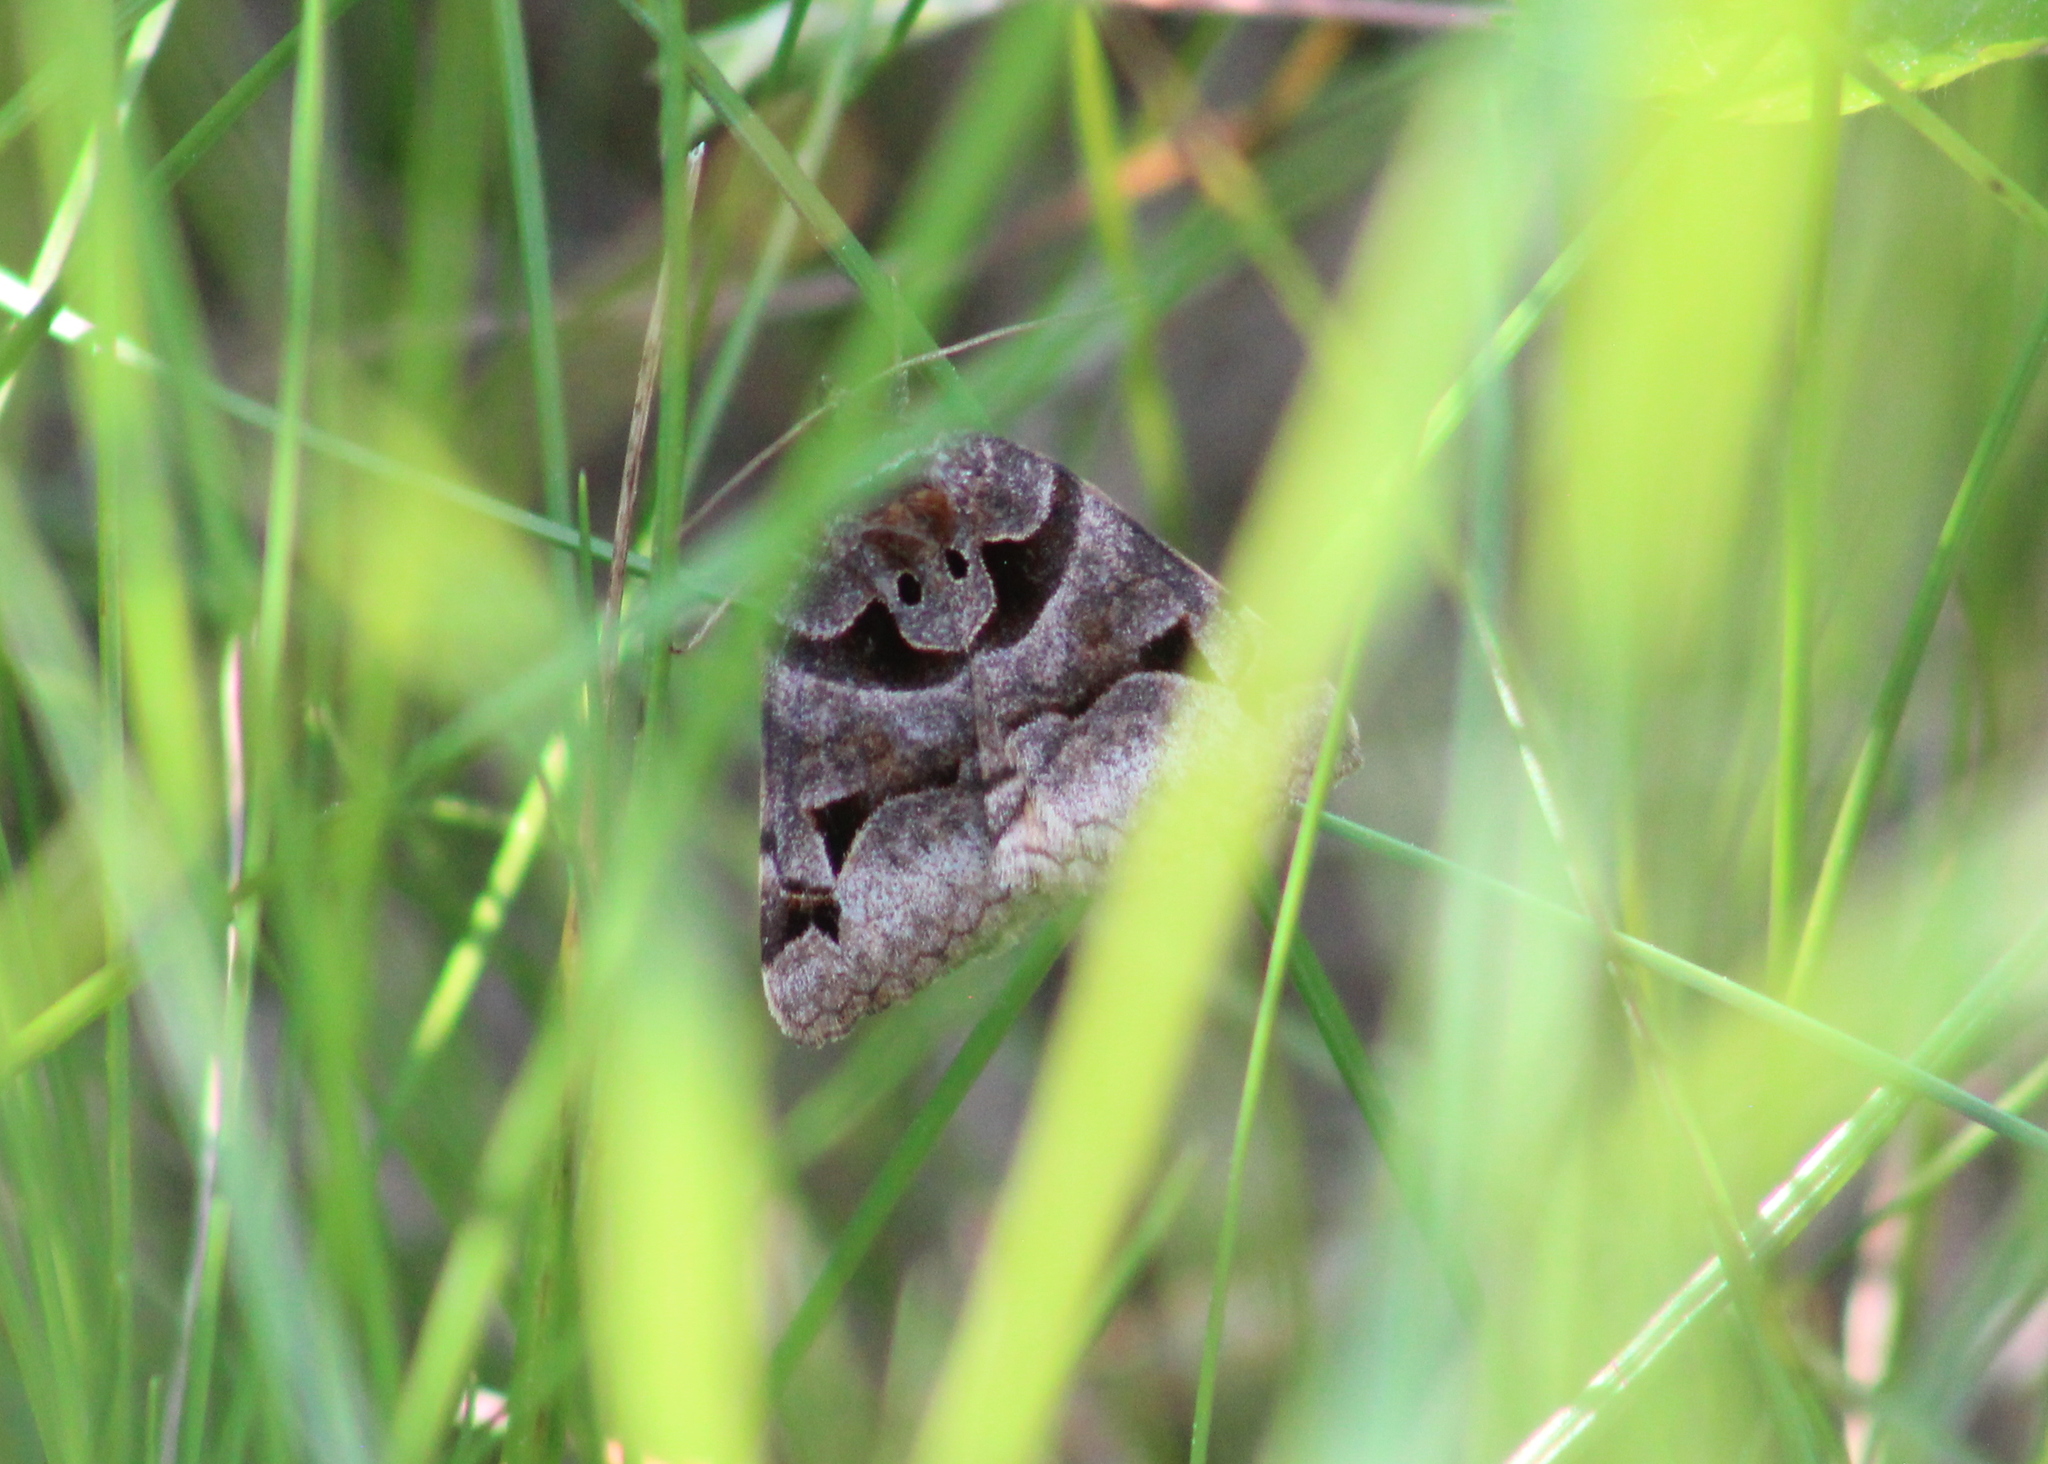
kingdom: Animalia
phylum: Arthropoda
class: Insecta
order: Lepidoptera
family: Erebidae
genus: Euclidia
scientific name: Euclidia cuspidea
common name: Toothed somberwing
